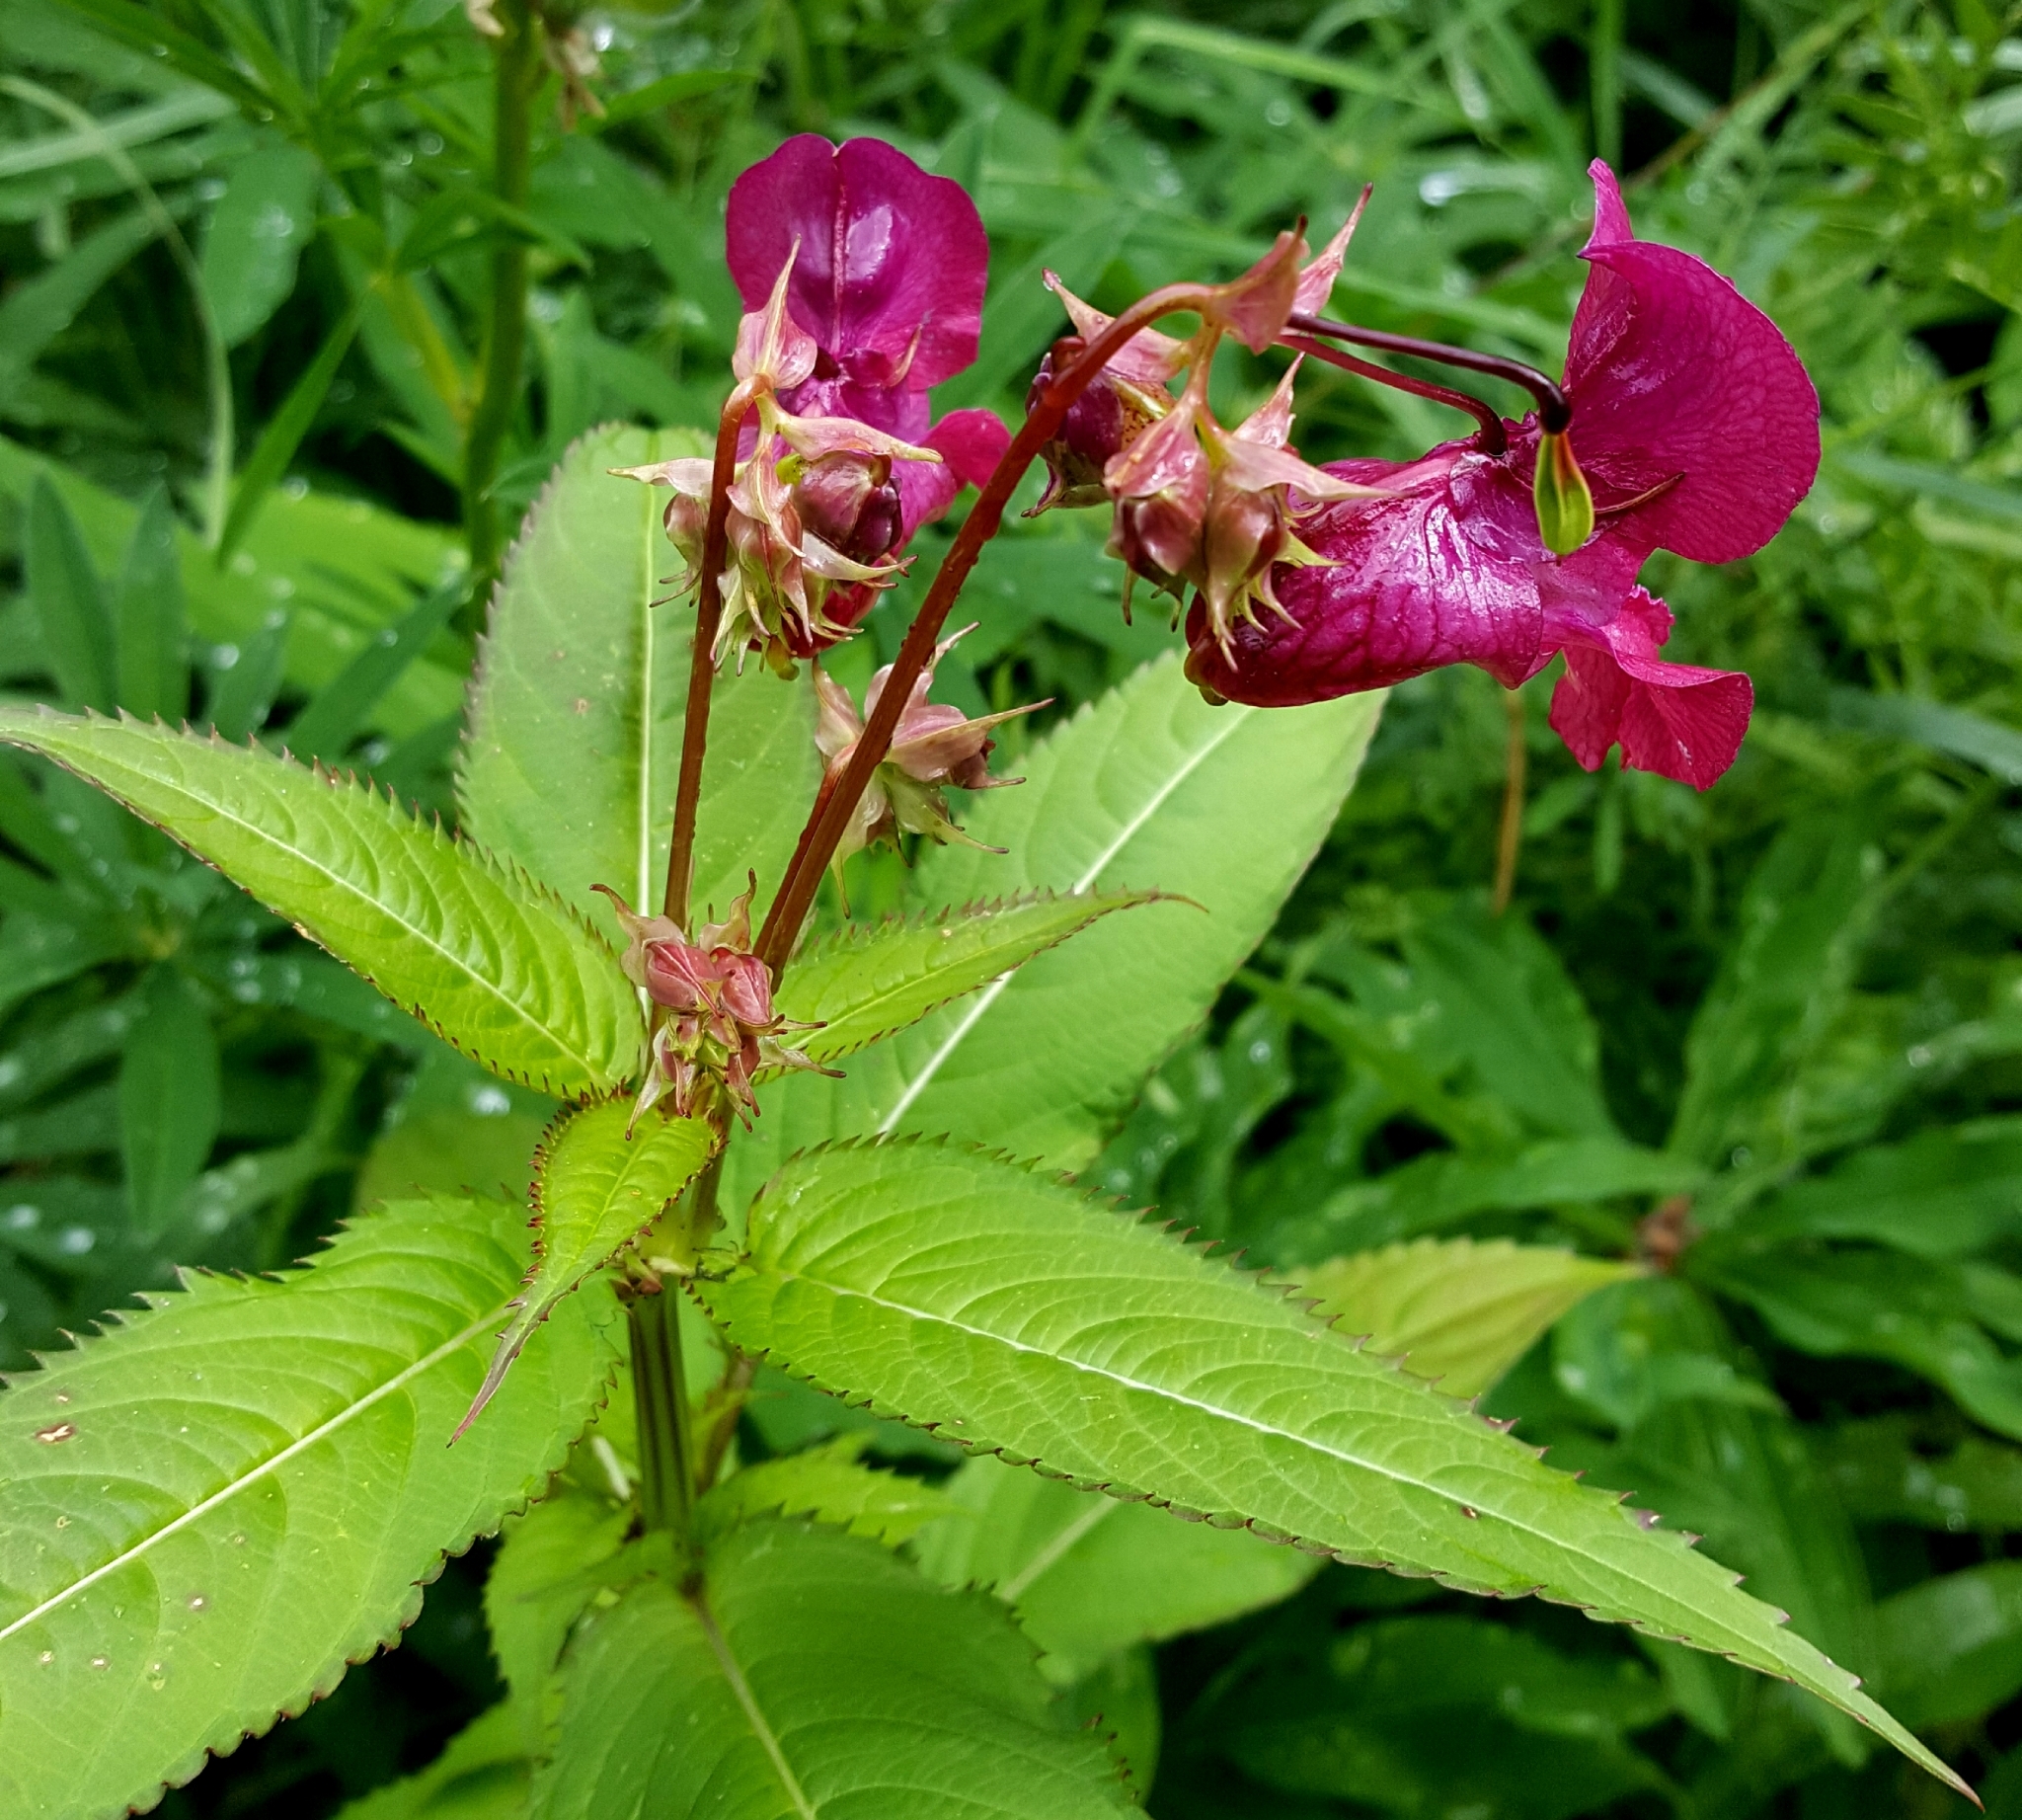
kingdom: Plantae
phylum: Tracheophyta
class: Magnoliopsida
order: Ericales
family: Balsaminaceae
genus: Impatiens
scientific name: Impatiens glandulifera
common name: Himalayan balsam
